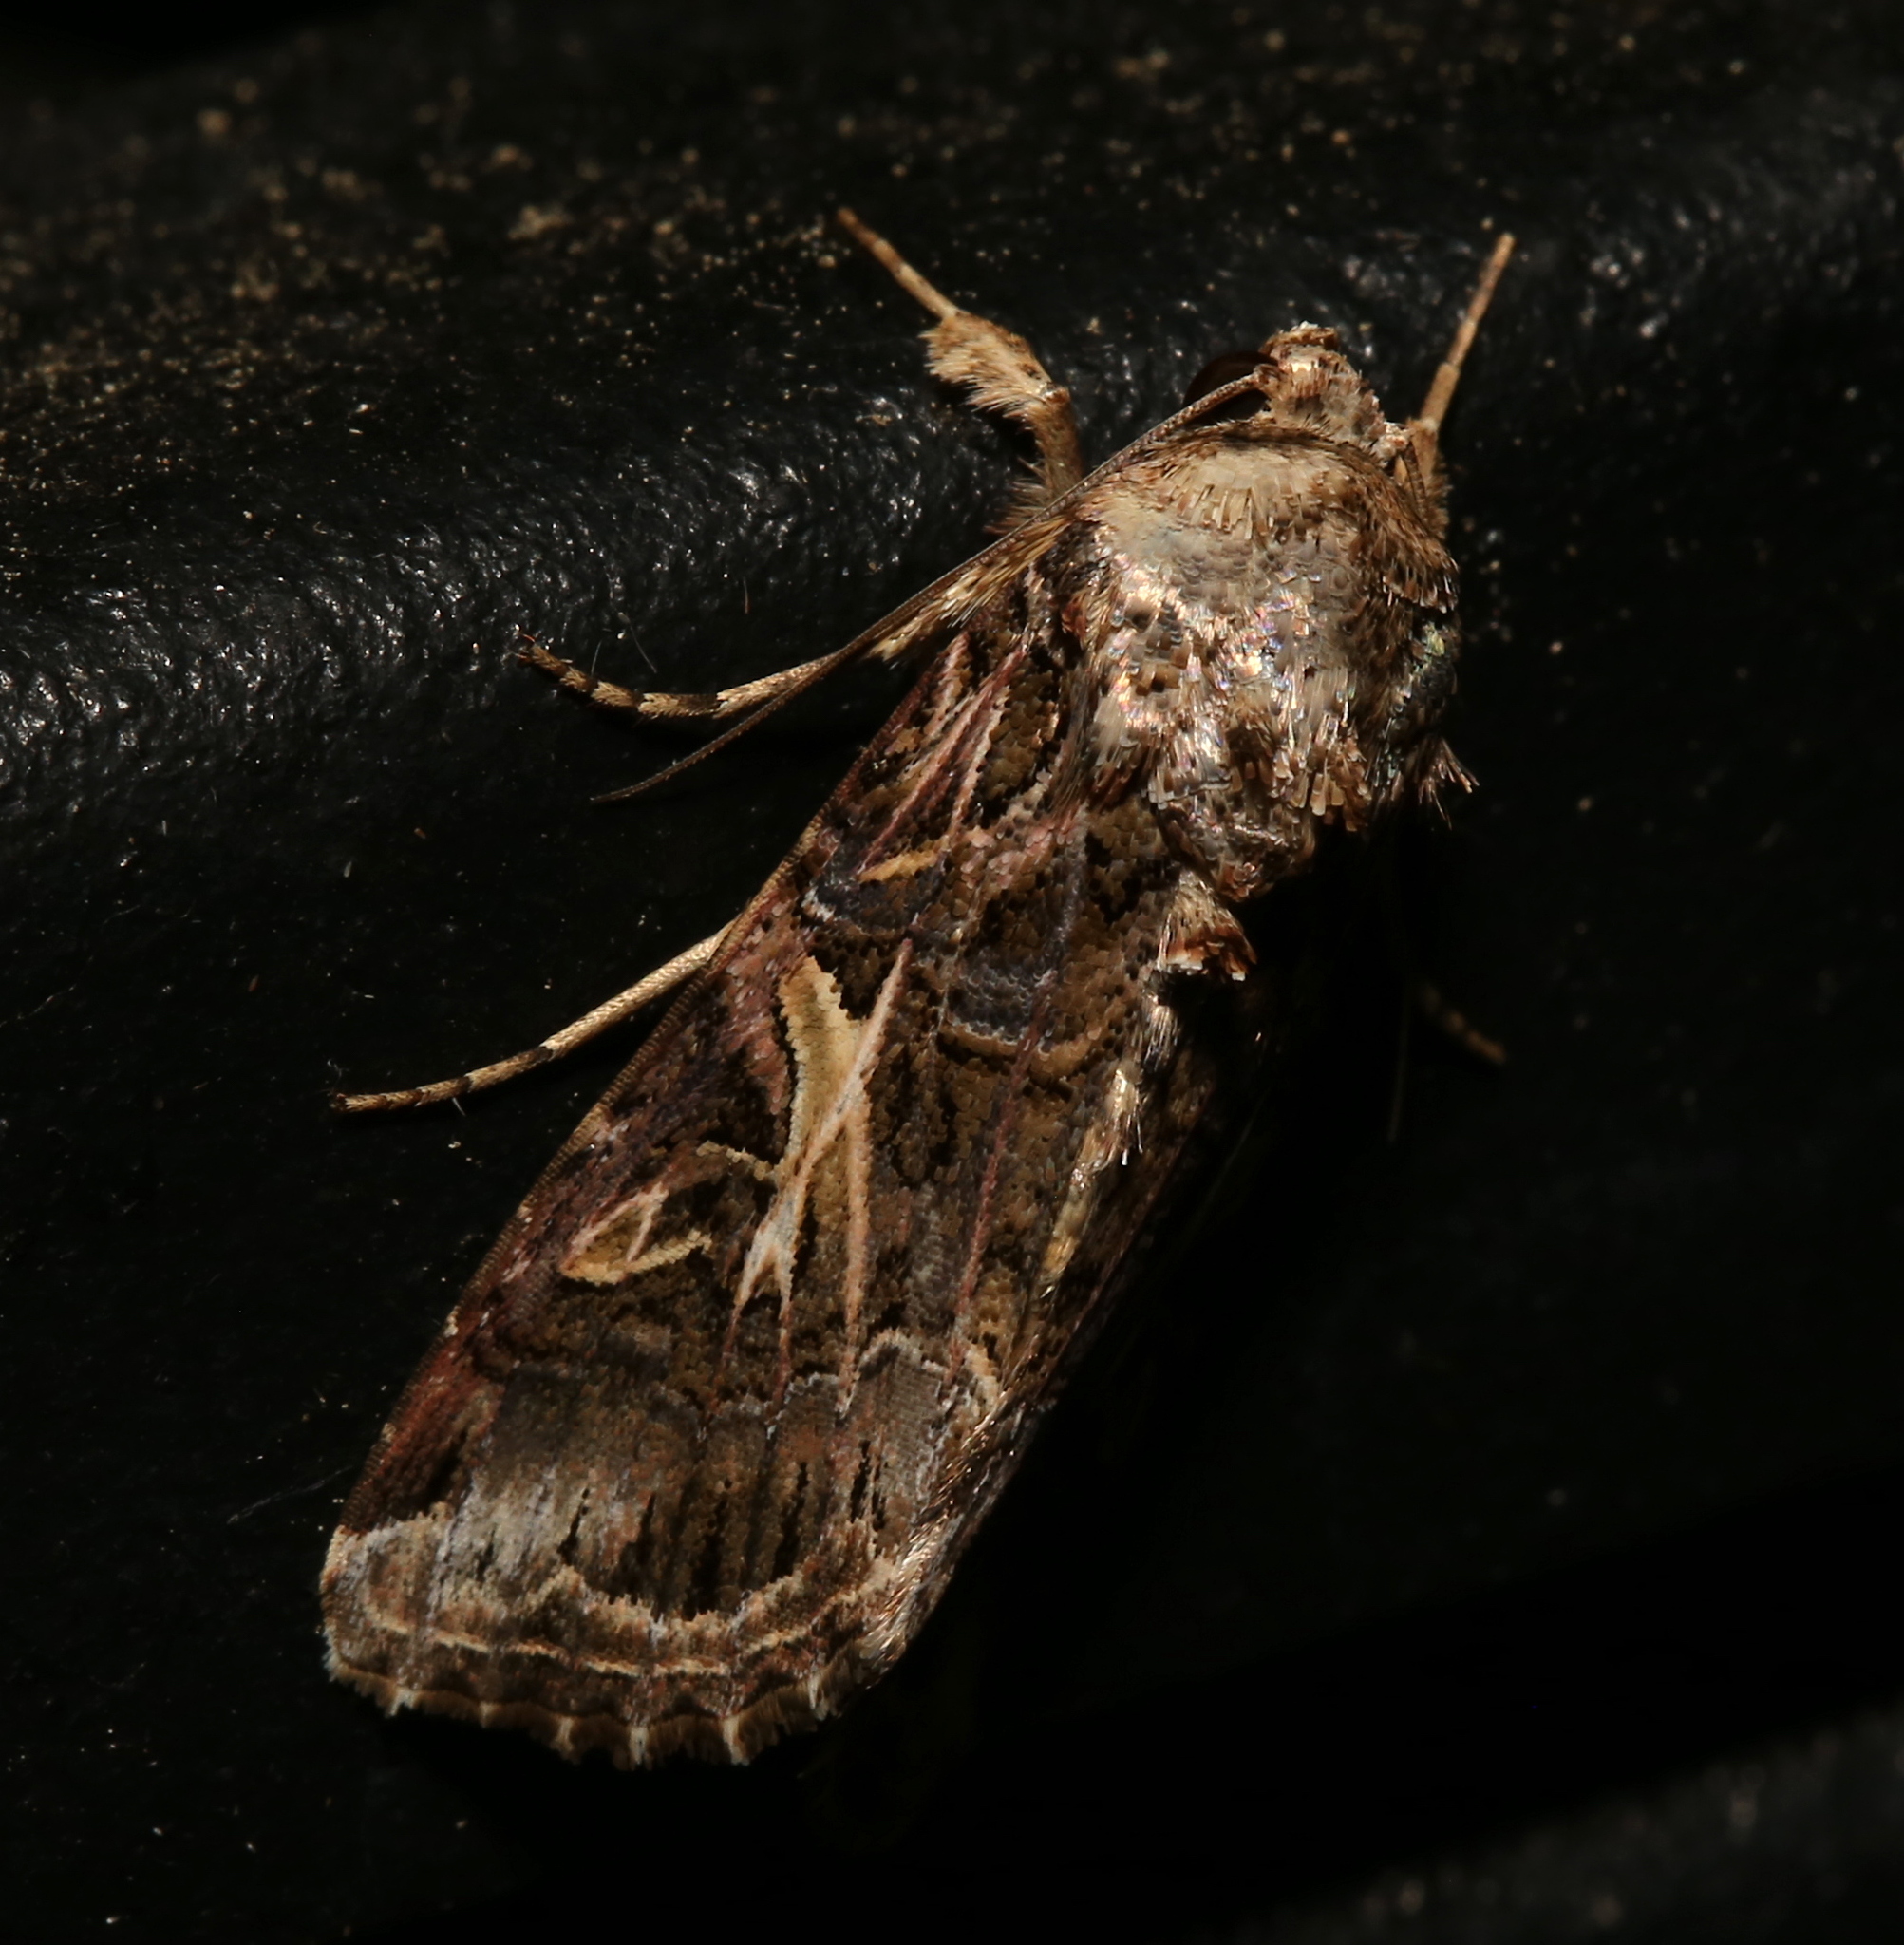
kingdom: Animalia
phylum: Arthropoda
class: Insecta
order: Lepidoptera
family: Noctuidae
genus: Spodoptera
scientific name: Spodoptera ornithogalli
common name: Yellow-striped armyworm
